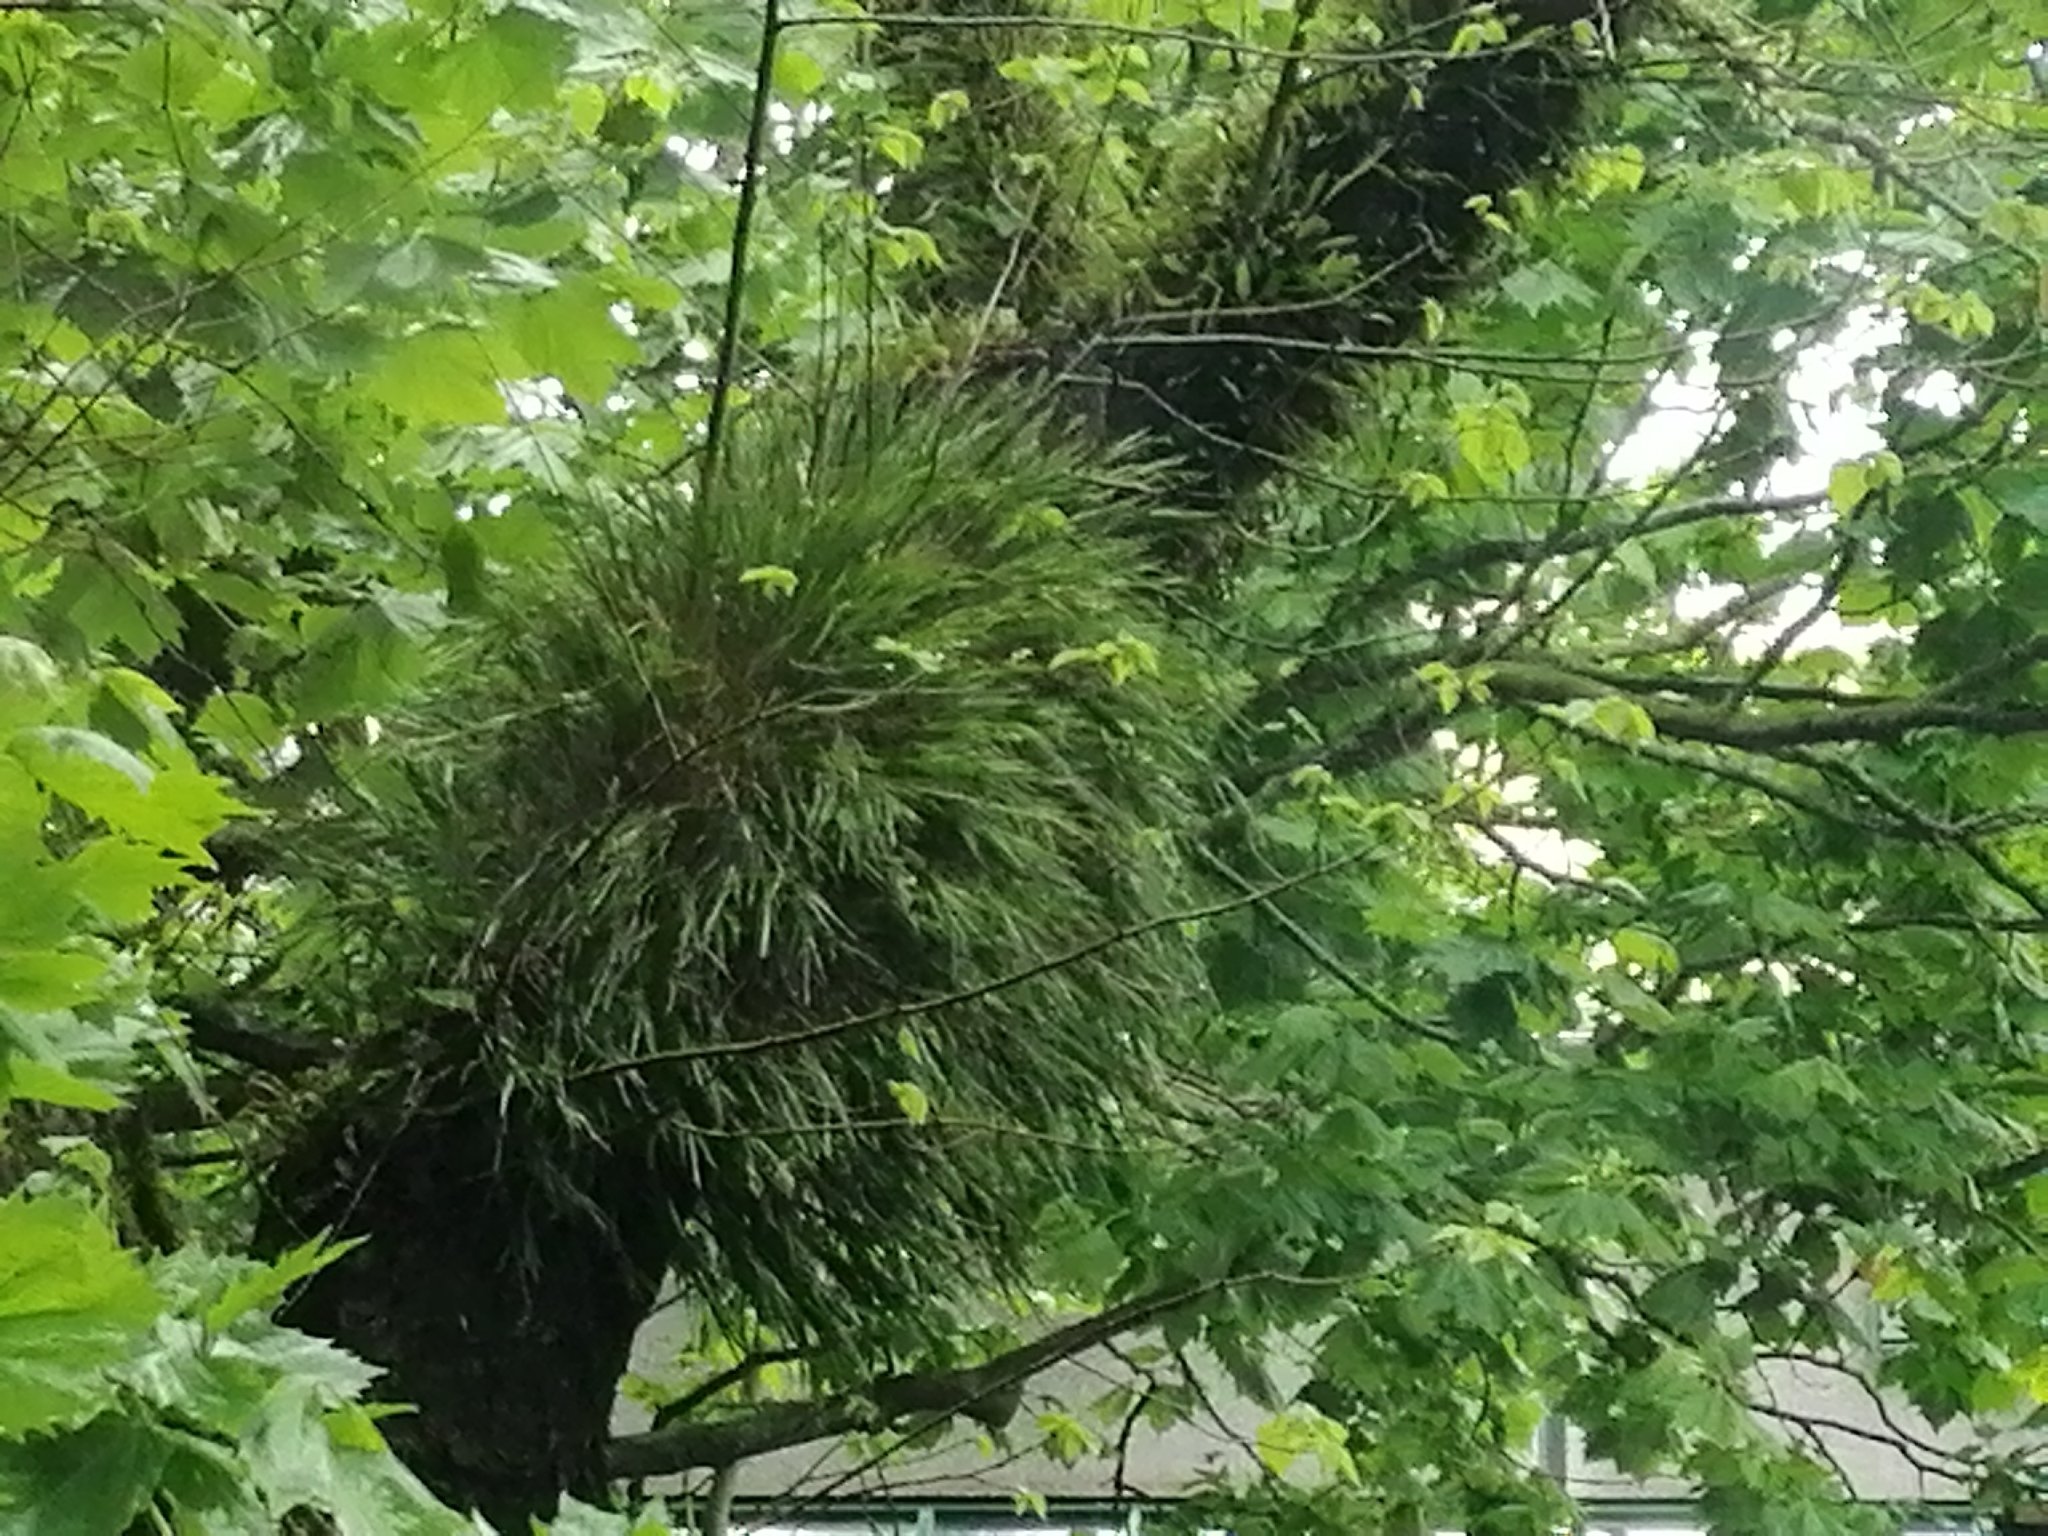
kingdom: Plantae
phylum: Tracheophyta
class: Liliopsida
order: Asparagales
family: Orchidaceae
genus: Earina
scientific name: Earina mucronata
